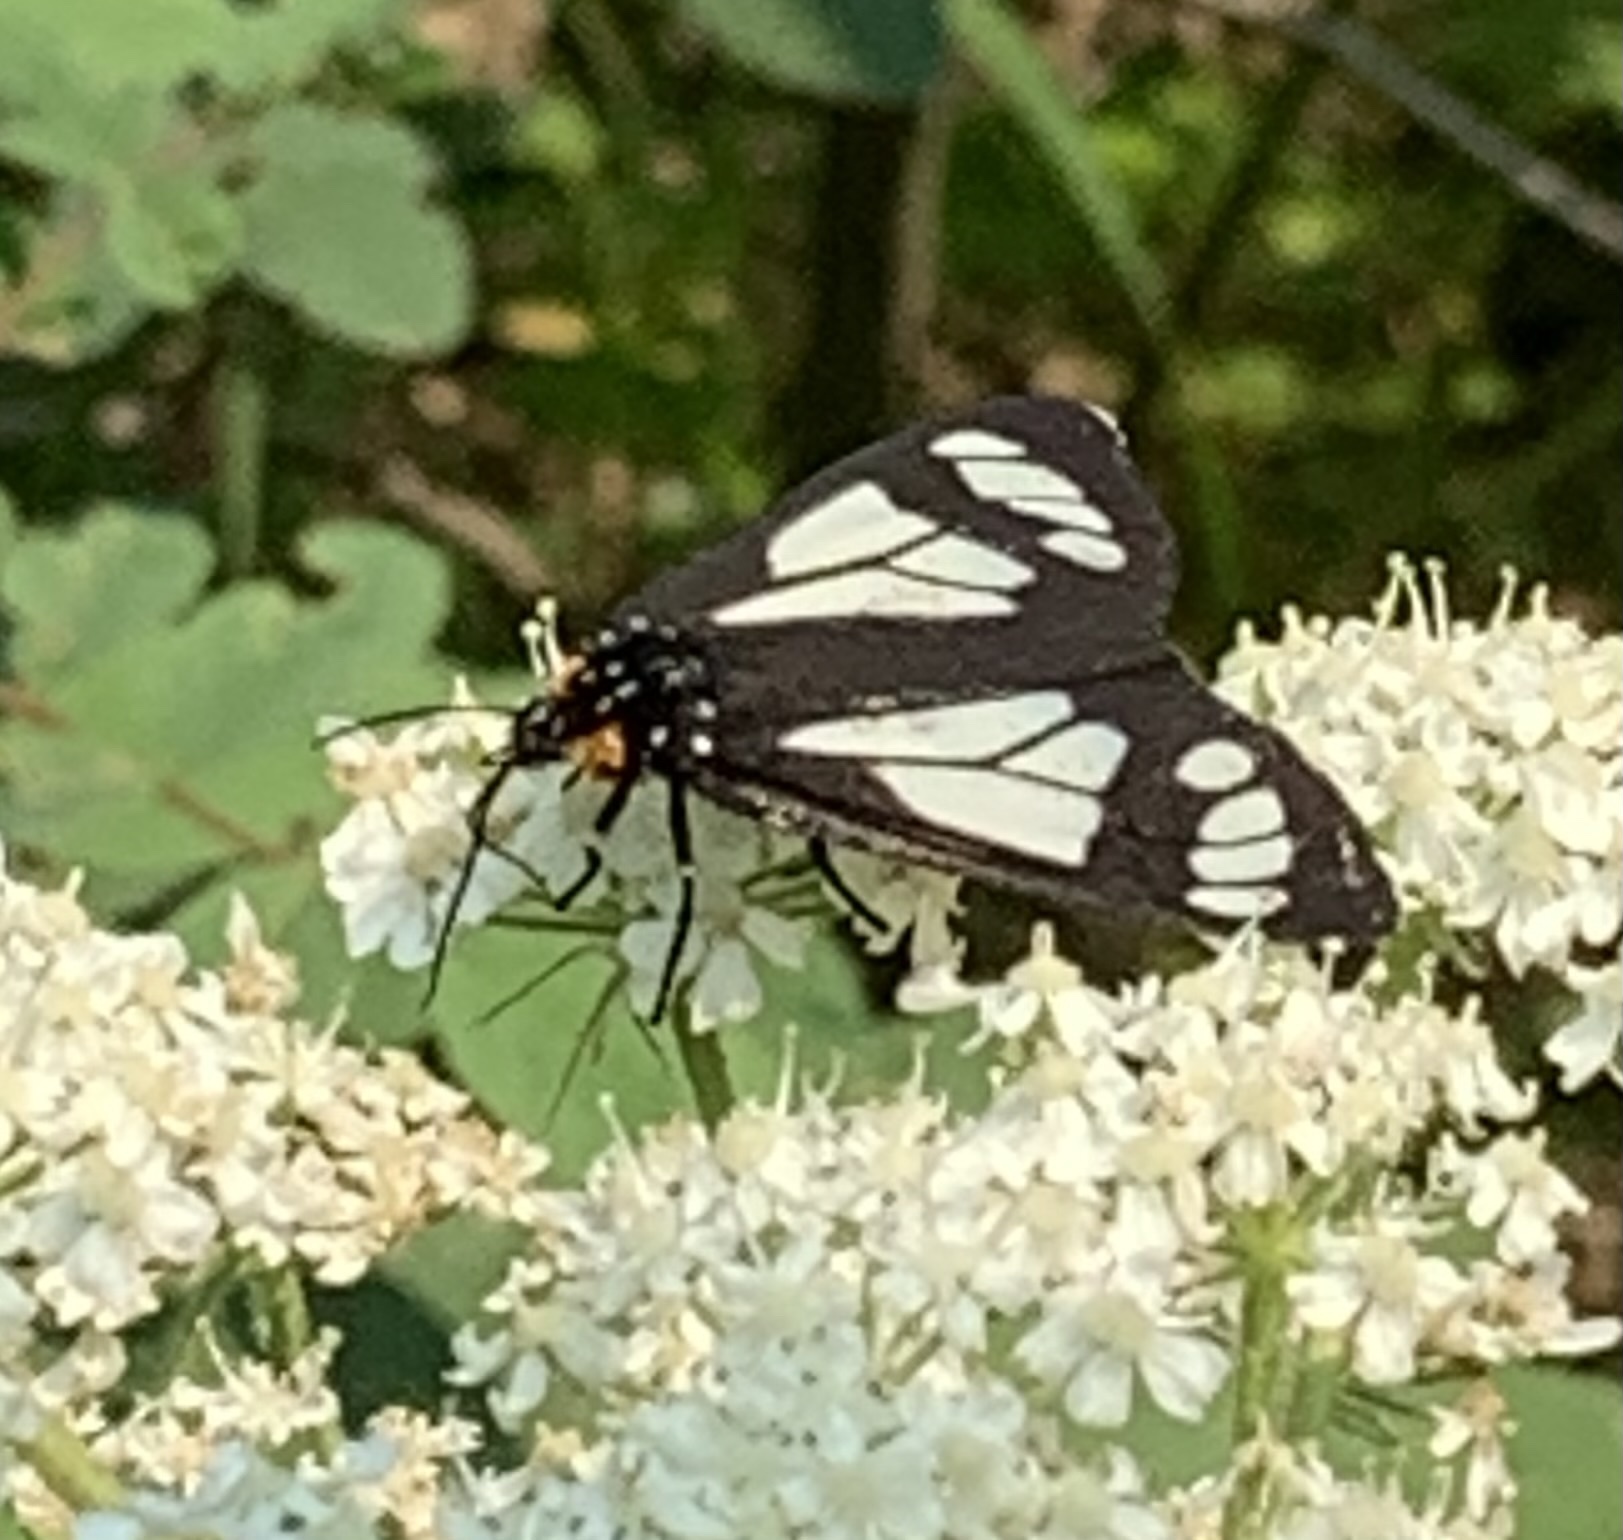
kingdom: Animalia
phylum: Arthropoda
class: Insecta
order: Lepidoptera
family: Erebidae
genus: Gnophaela
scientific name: Gnophaela vermiculata
